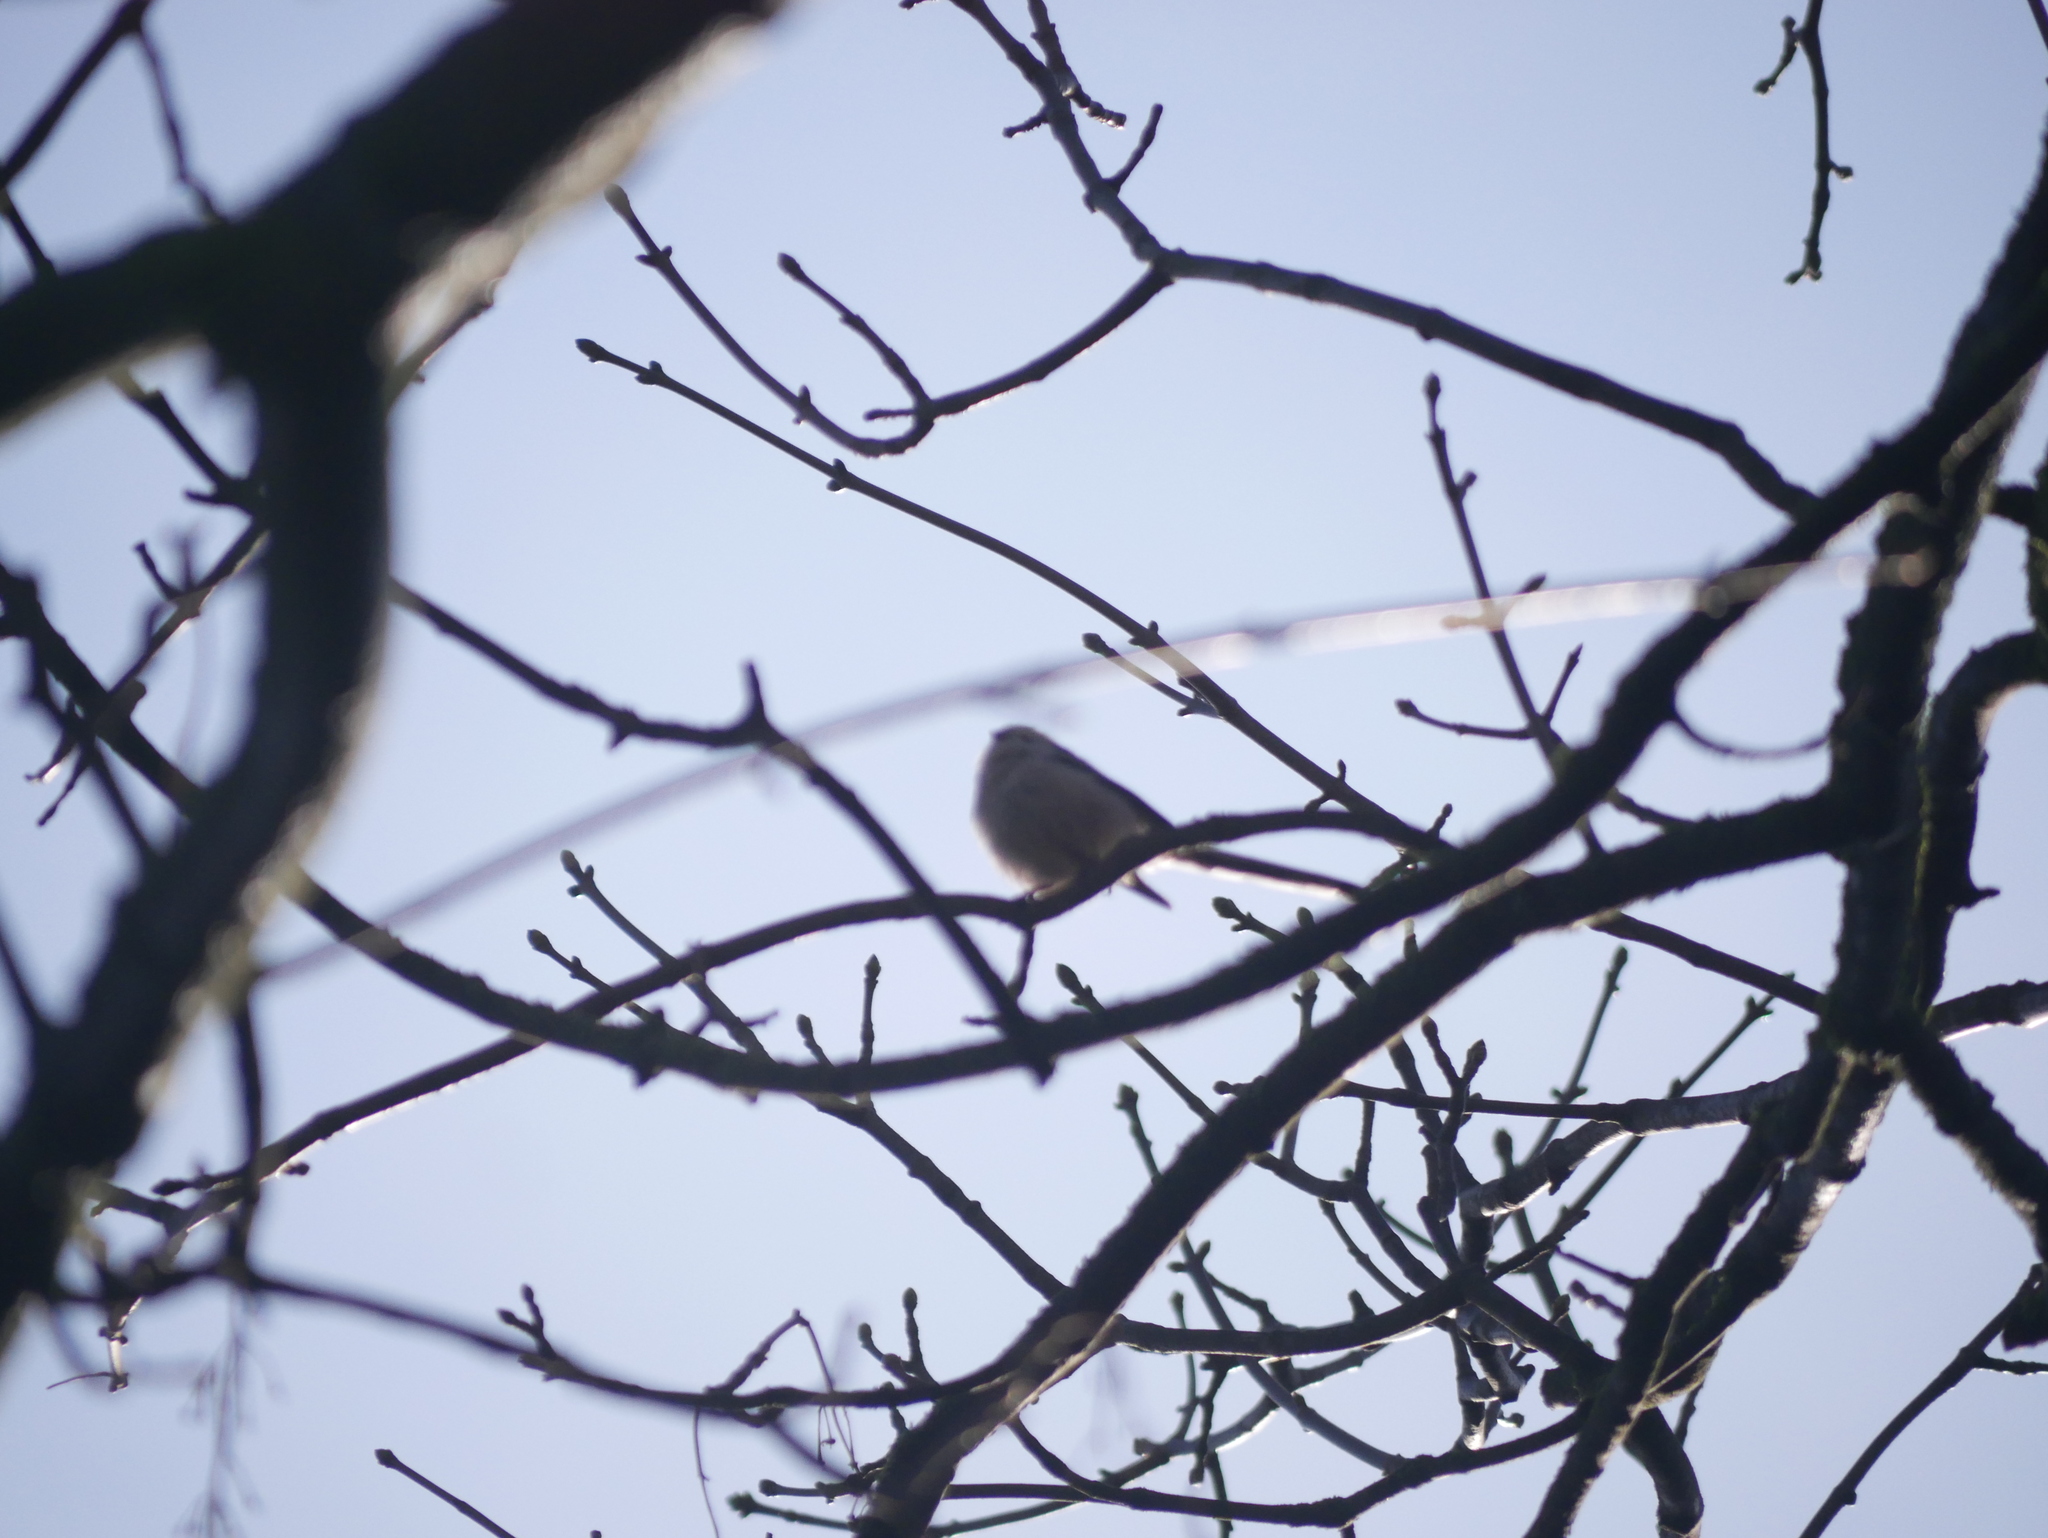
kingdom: Animalia
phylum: Chordata
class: Aves
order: Passeriformes
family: Aegithalidae
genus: Aegithalos
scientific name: Aegithalos caudatus
